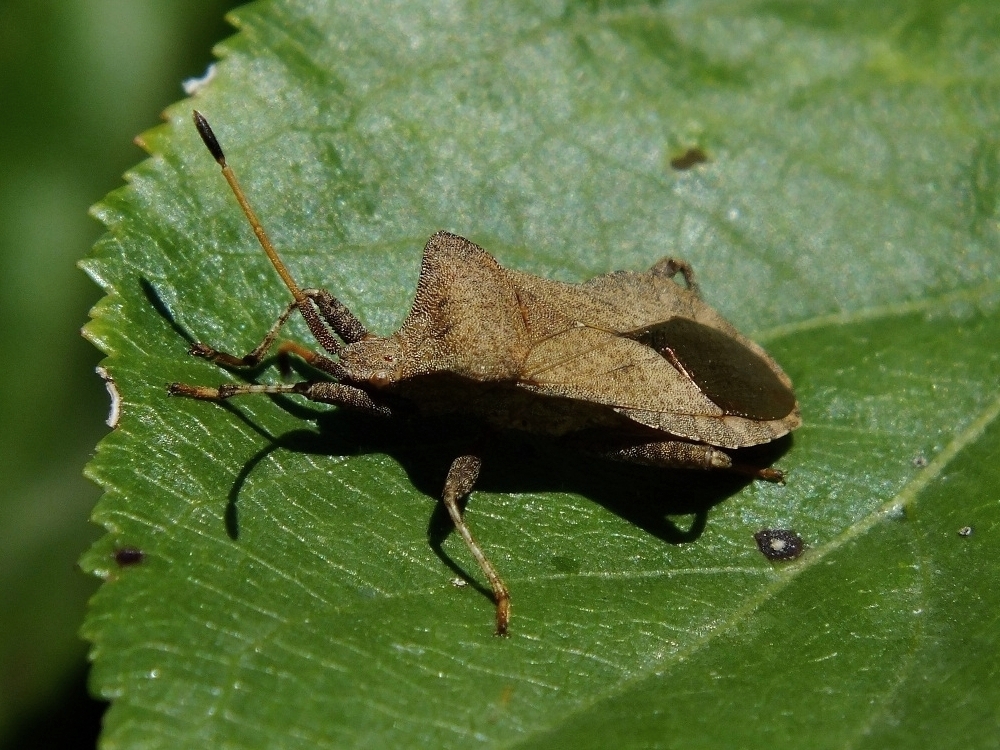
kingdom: Animalia
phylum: Arthropoda
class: Insecta
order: Hemiptera
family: Coreidae
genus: Coreus
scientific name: Coreus marginatus
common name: Dock bug
